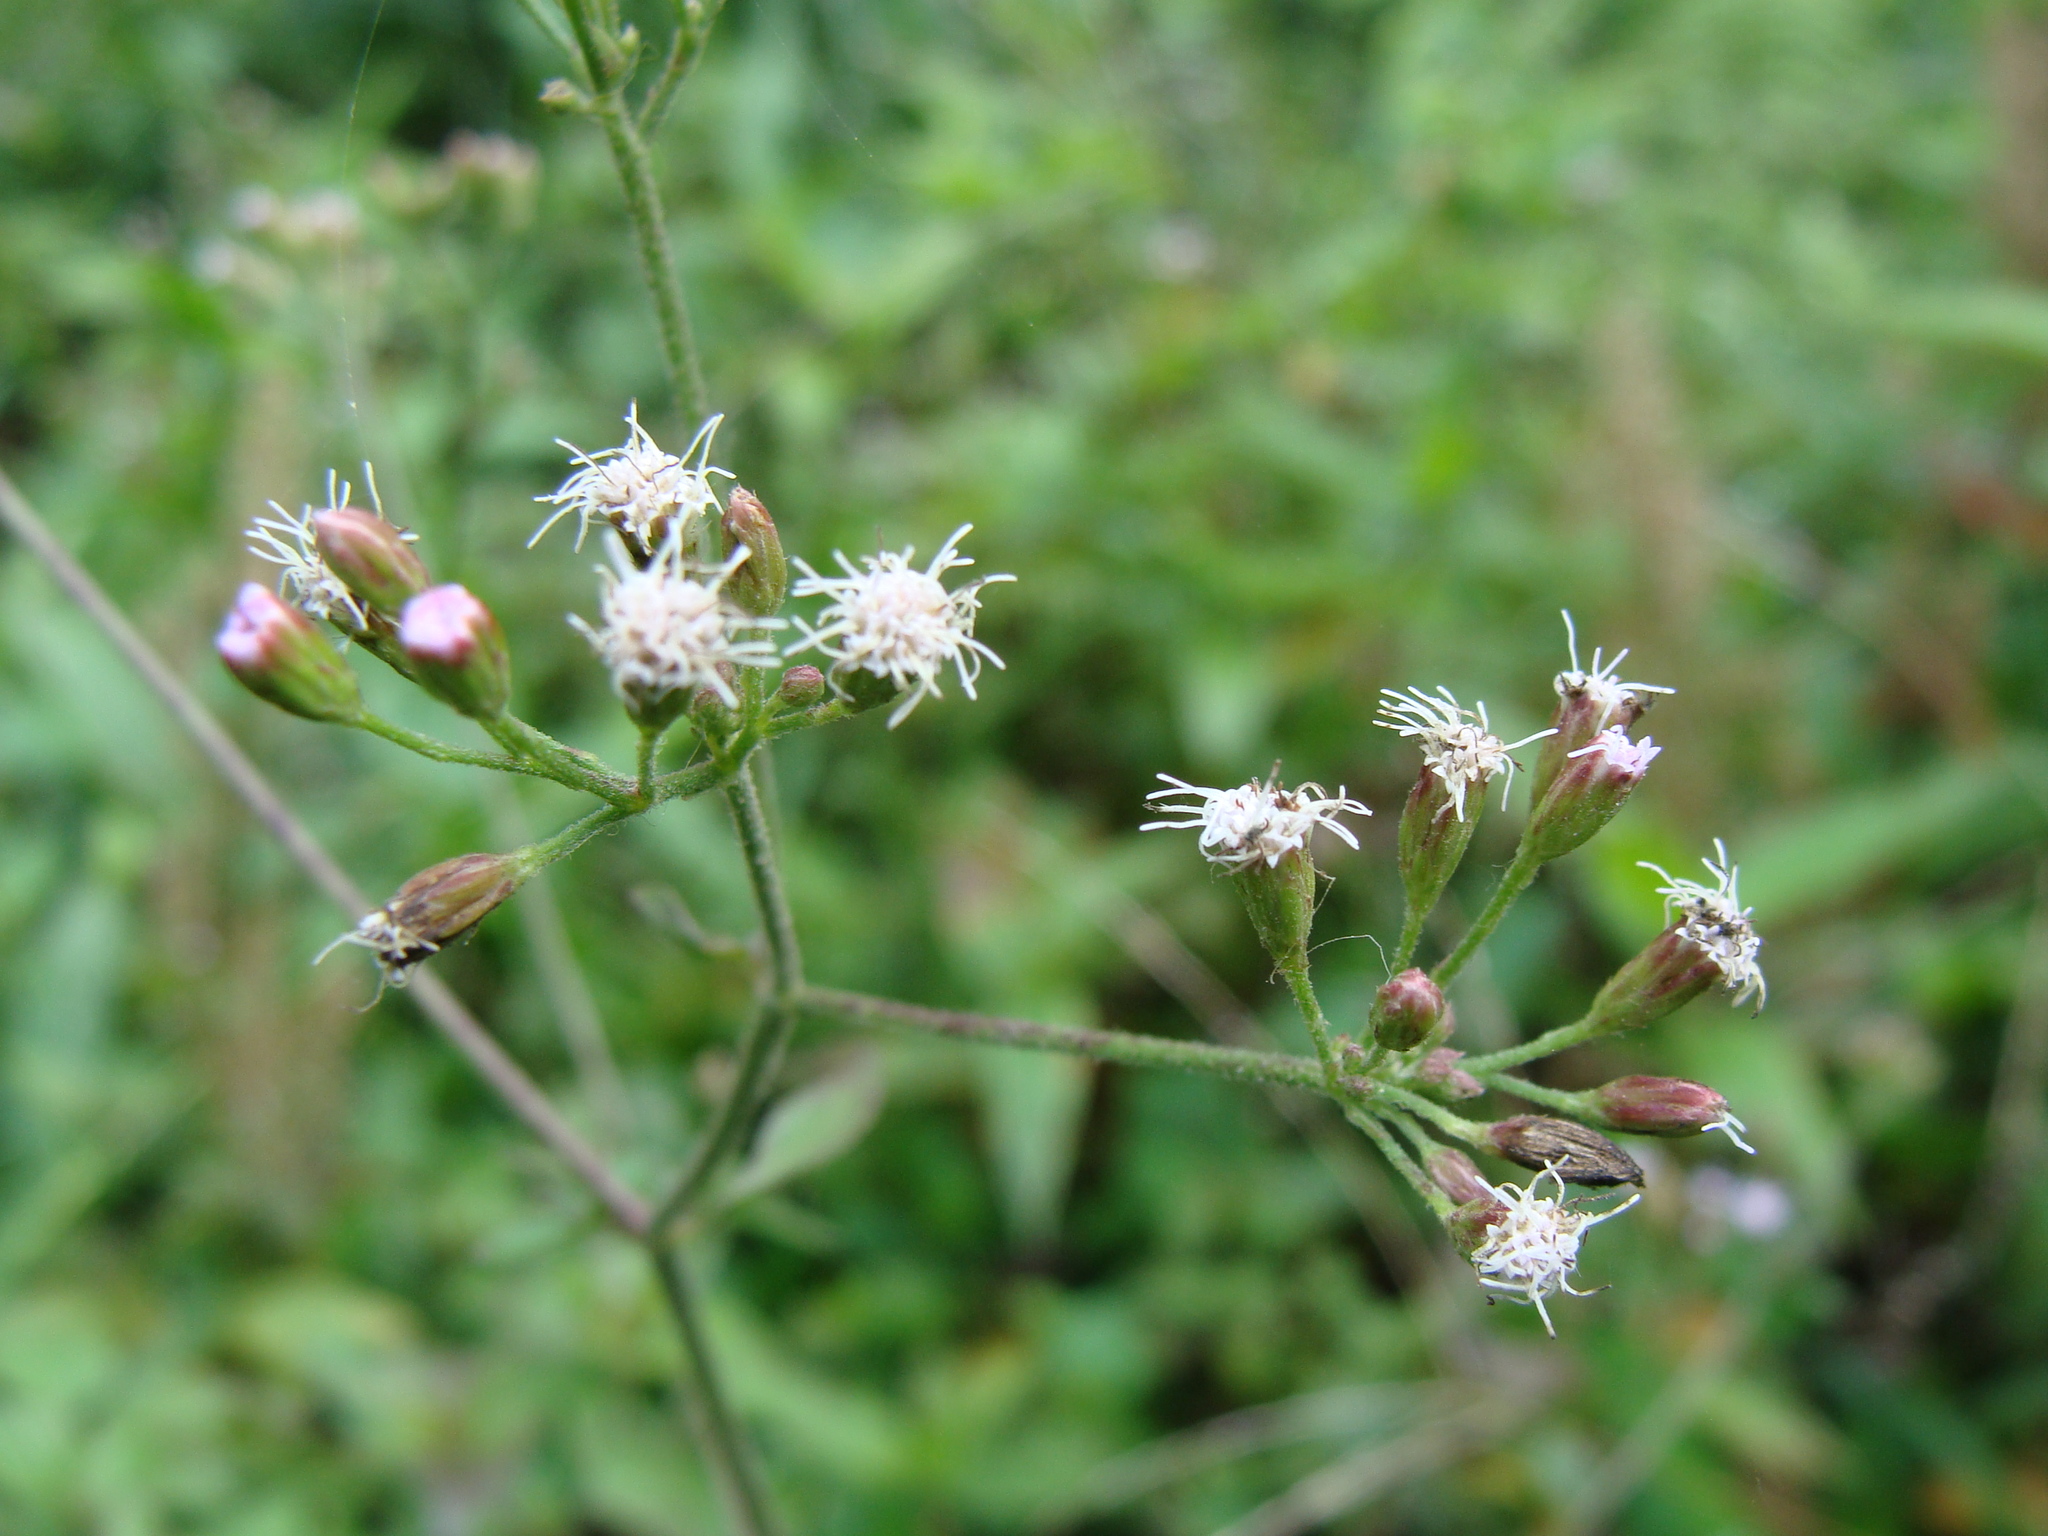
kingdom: Plantae
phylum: Tracheophyta
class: Magnoliopsida
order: Asterales
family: Asteraceae
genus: Peteravenia
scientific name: Peteravenia schultzii
